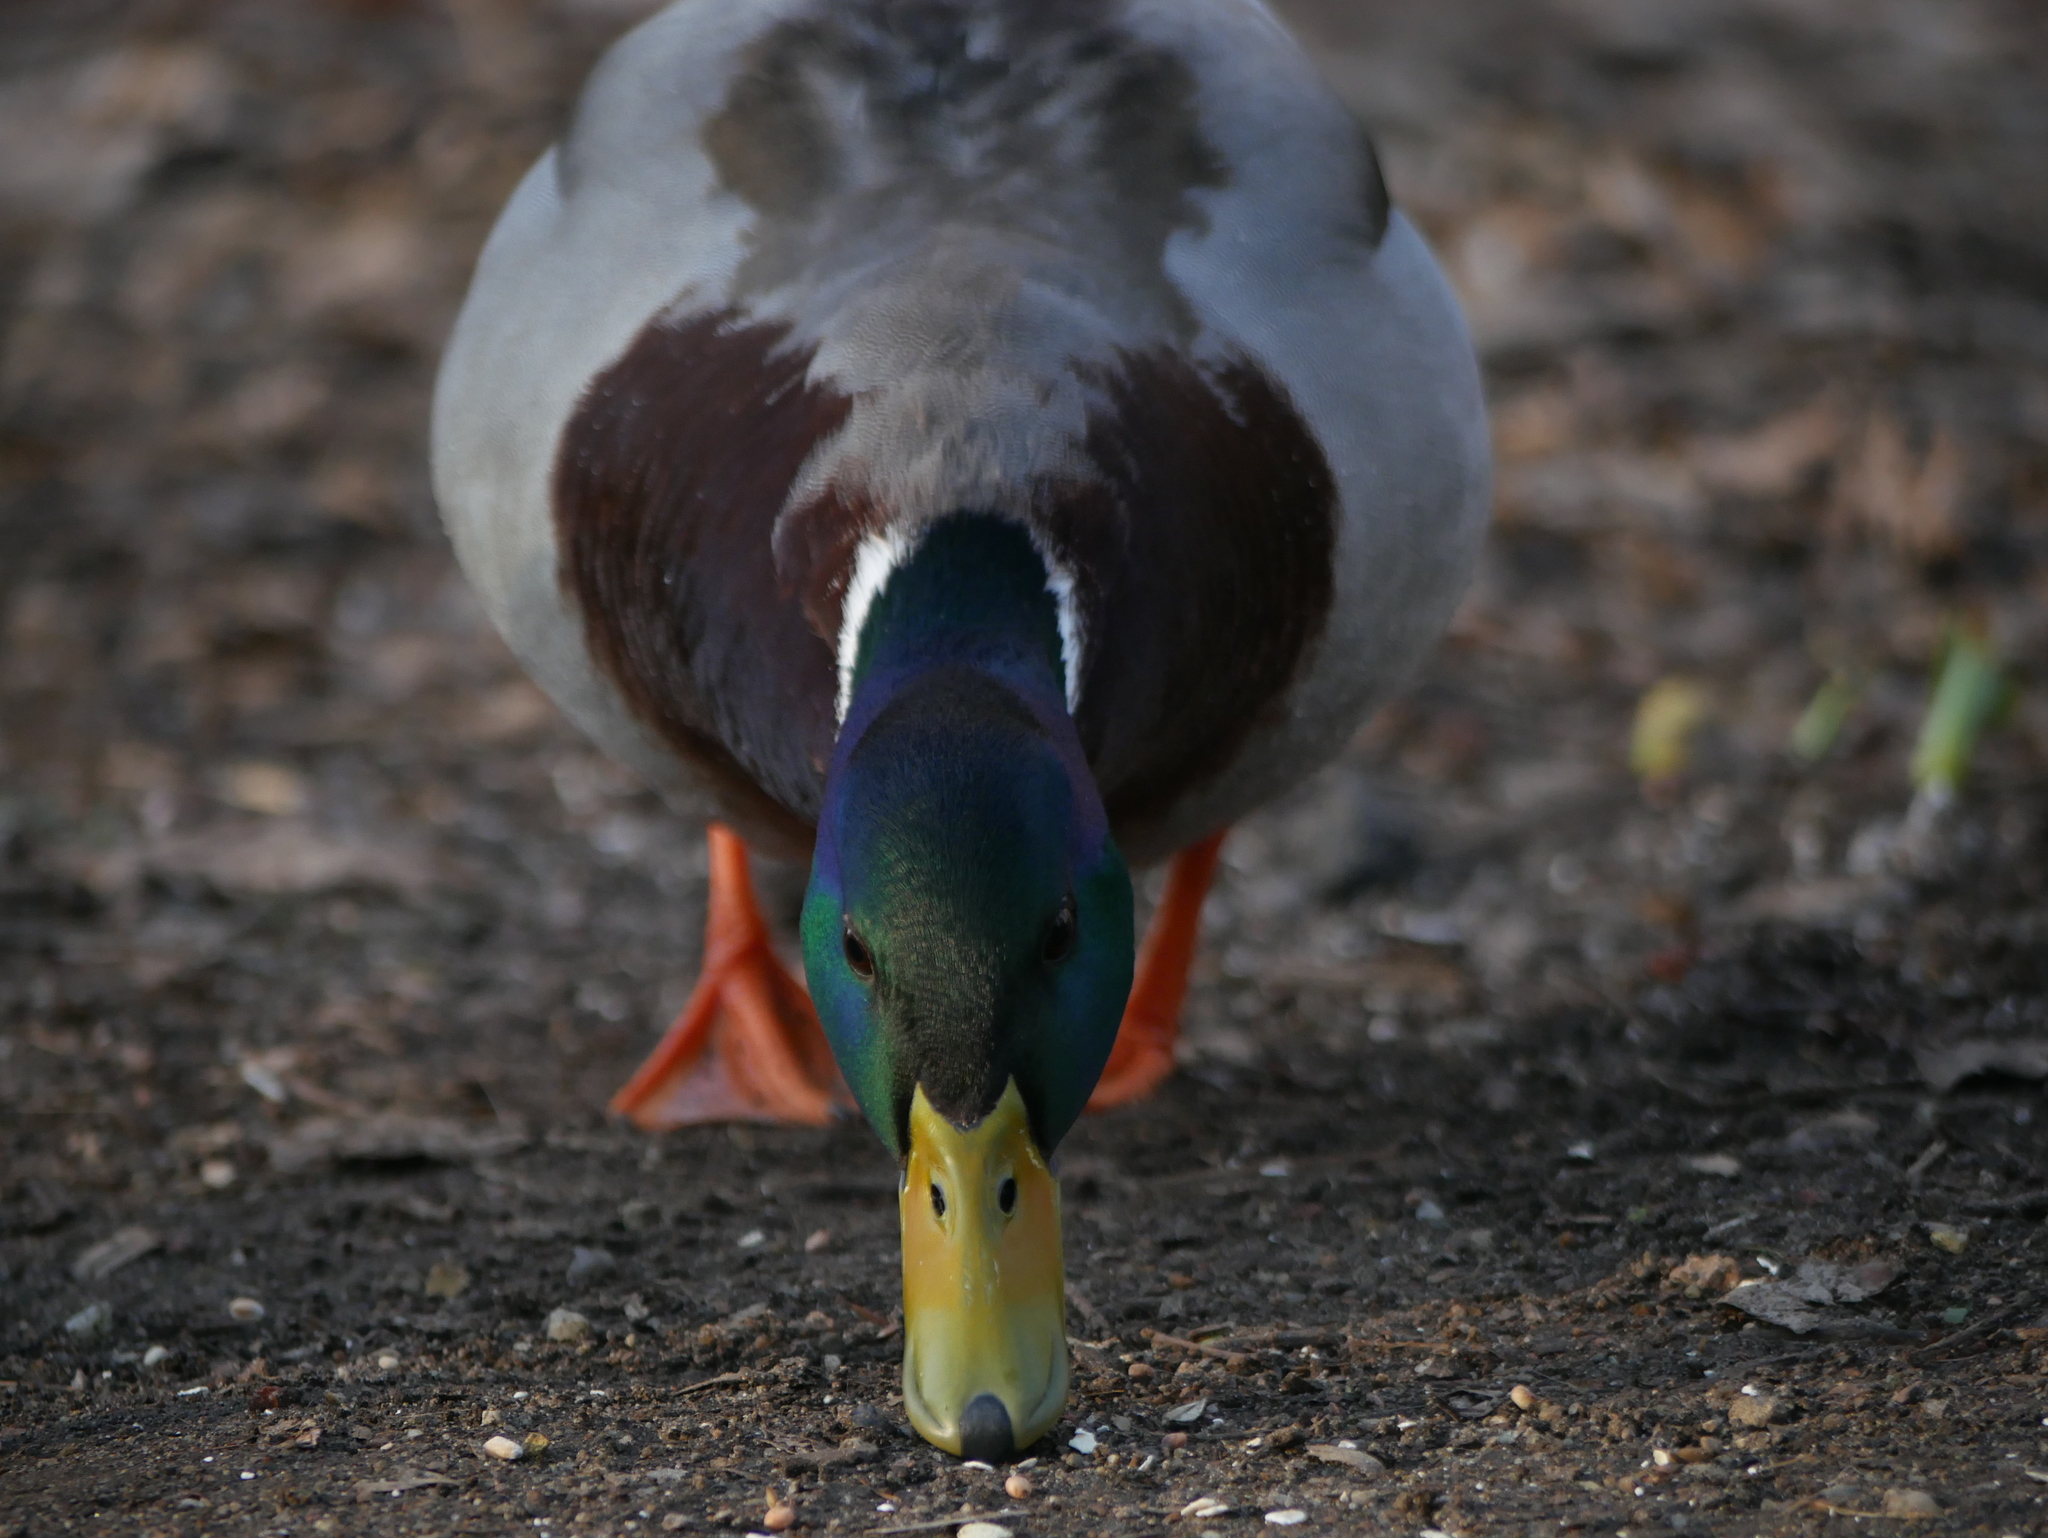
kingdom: Animalia
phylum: Chordata
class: Aves
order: Anseriformes
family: Anatidae
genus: Anas
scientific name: Anas platyrhynchos
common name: Mallard
